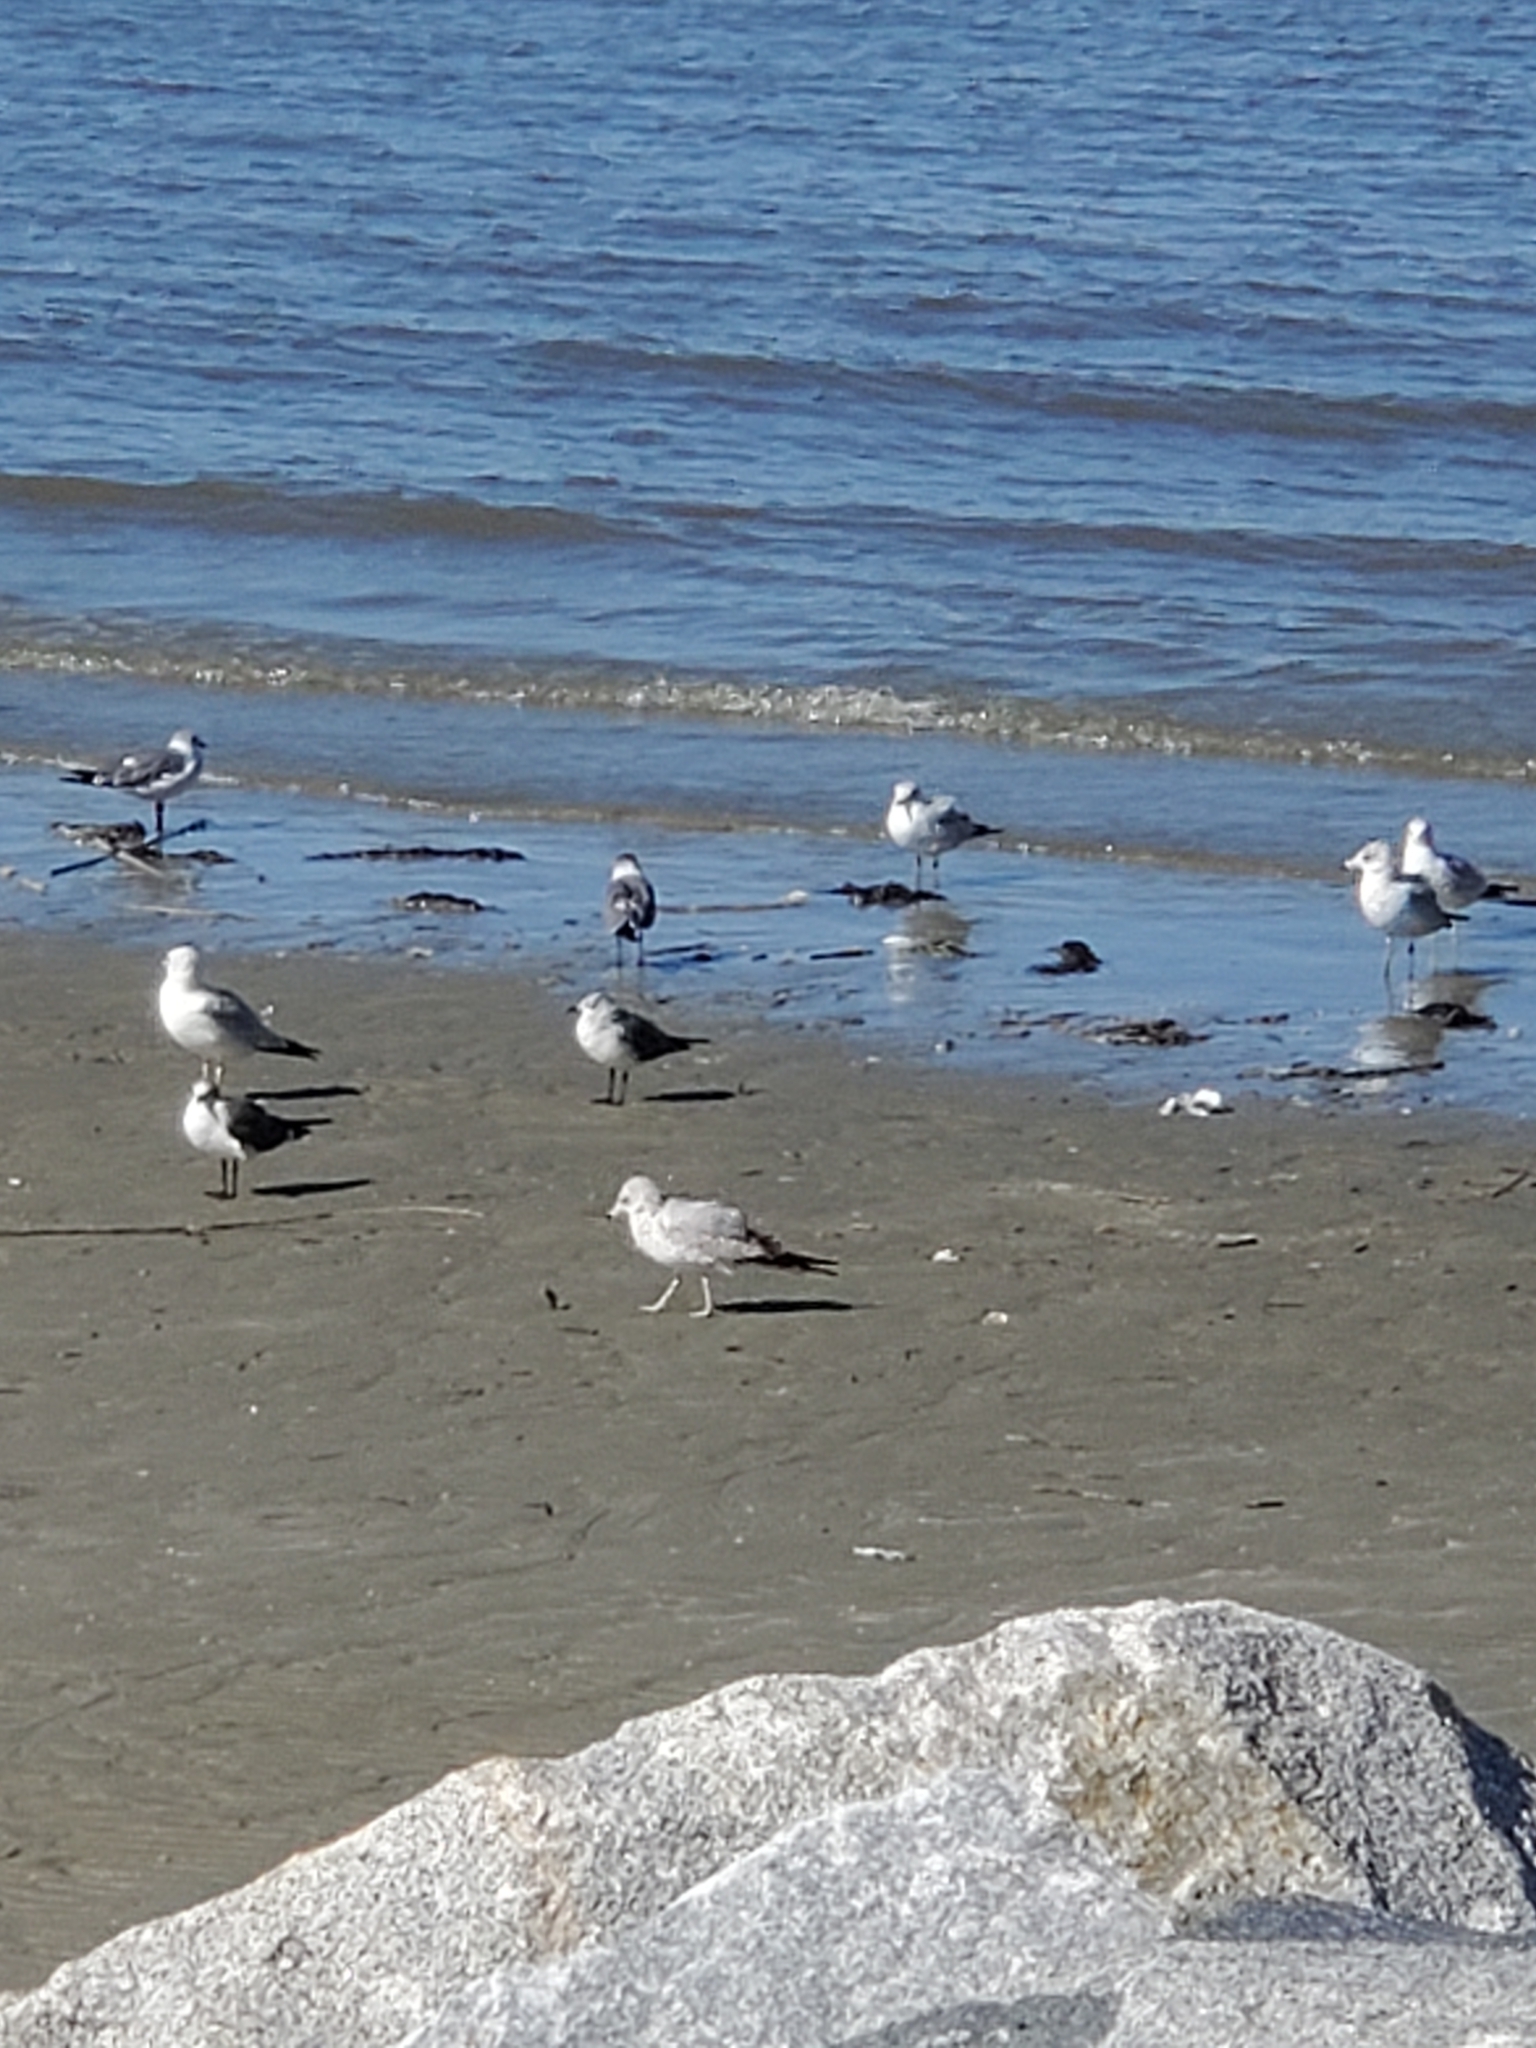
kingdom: Animalia
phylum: Chordata
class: Aves
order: Charadriiformes
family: Laridae
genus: Larus
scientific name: Larus delawarensis
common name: Ring-billed gull
